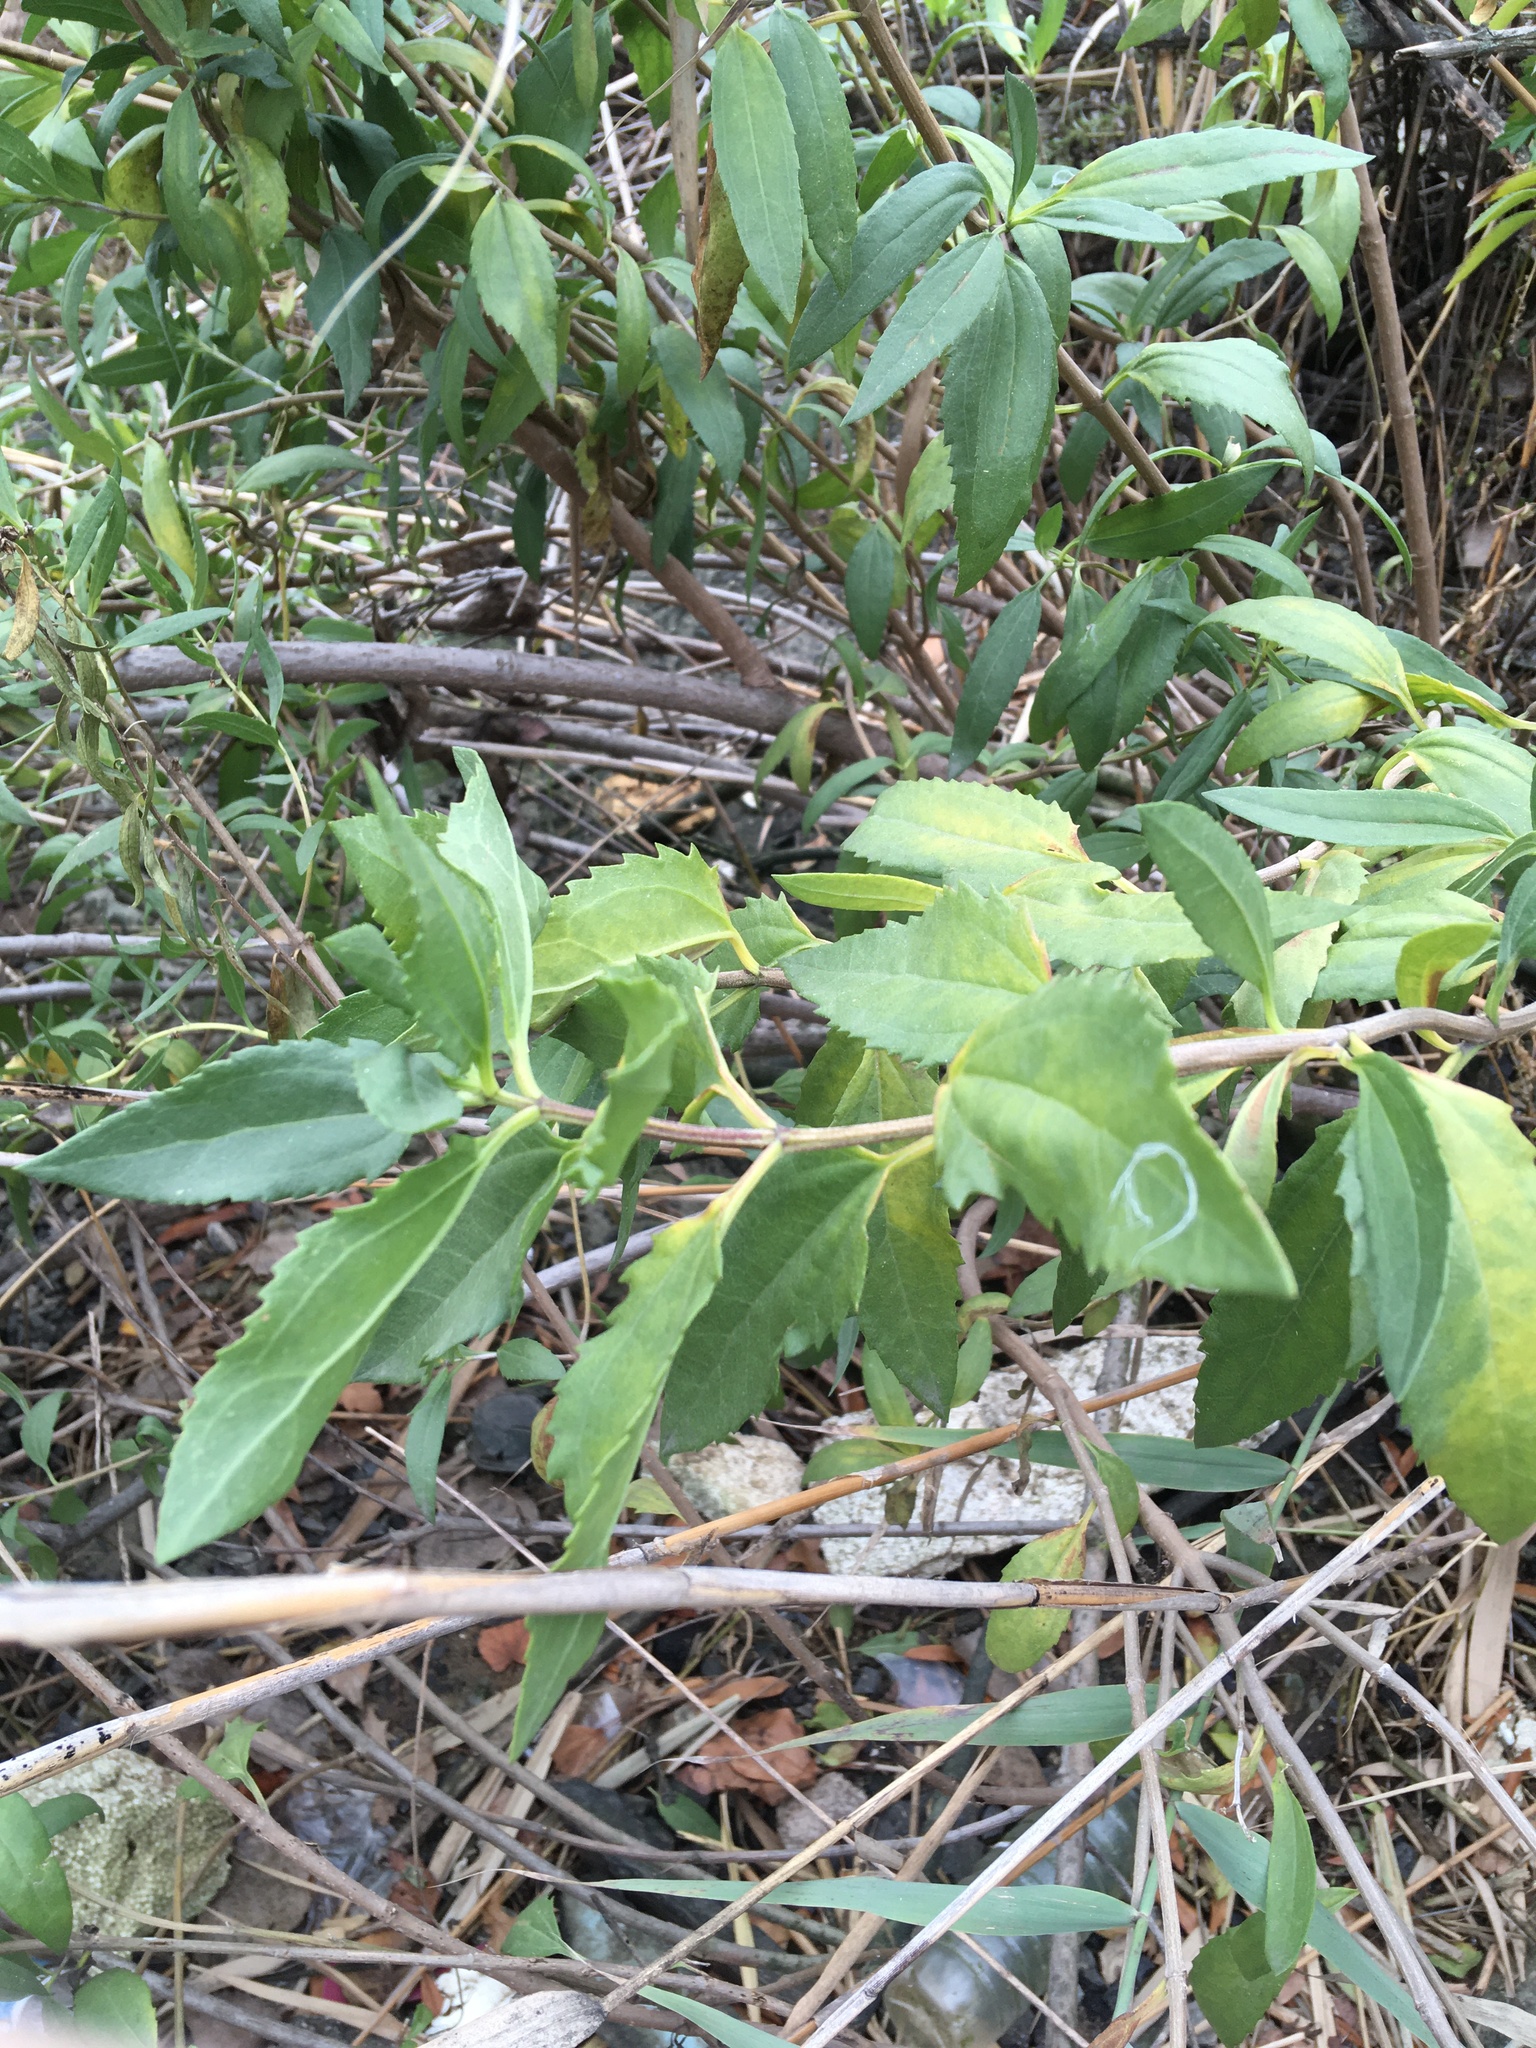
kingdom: Plantae
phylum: Tracheophyta
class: Magnoliopsida
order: Asterales
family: Asteraceae
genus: Iva
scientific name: Iva frutescens
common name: Big-leaved marsh-elder
